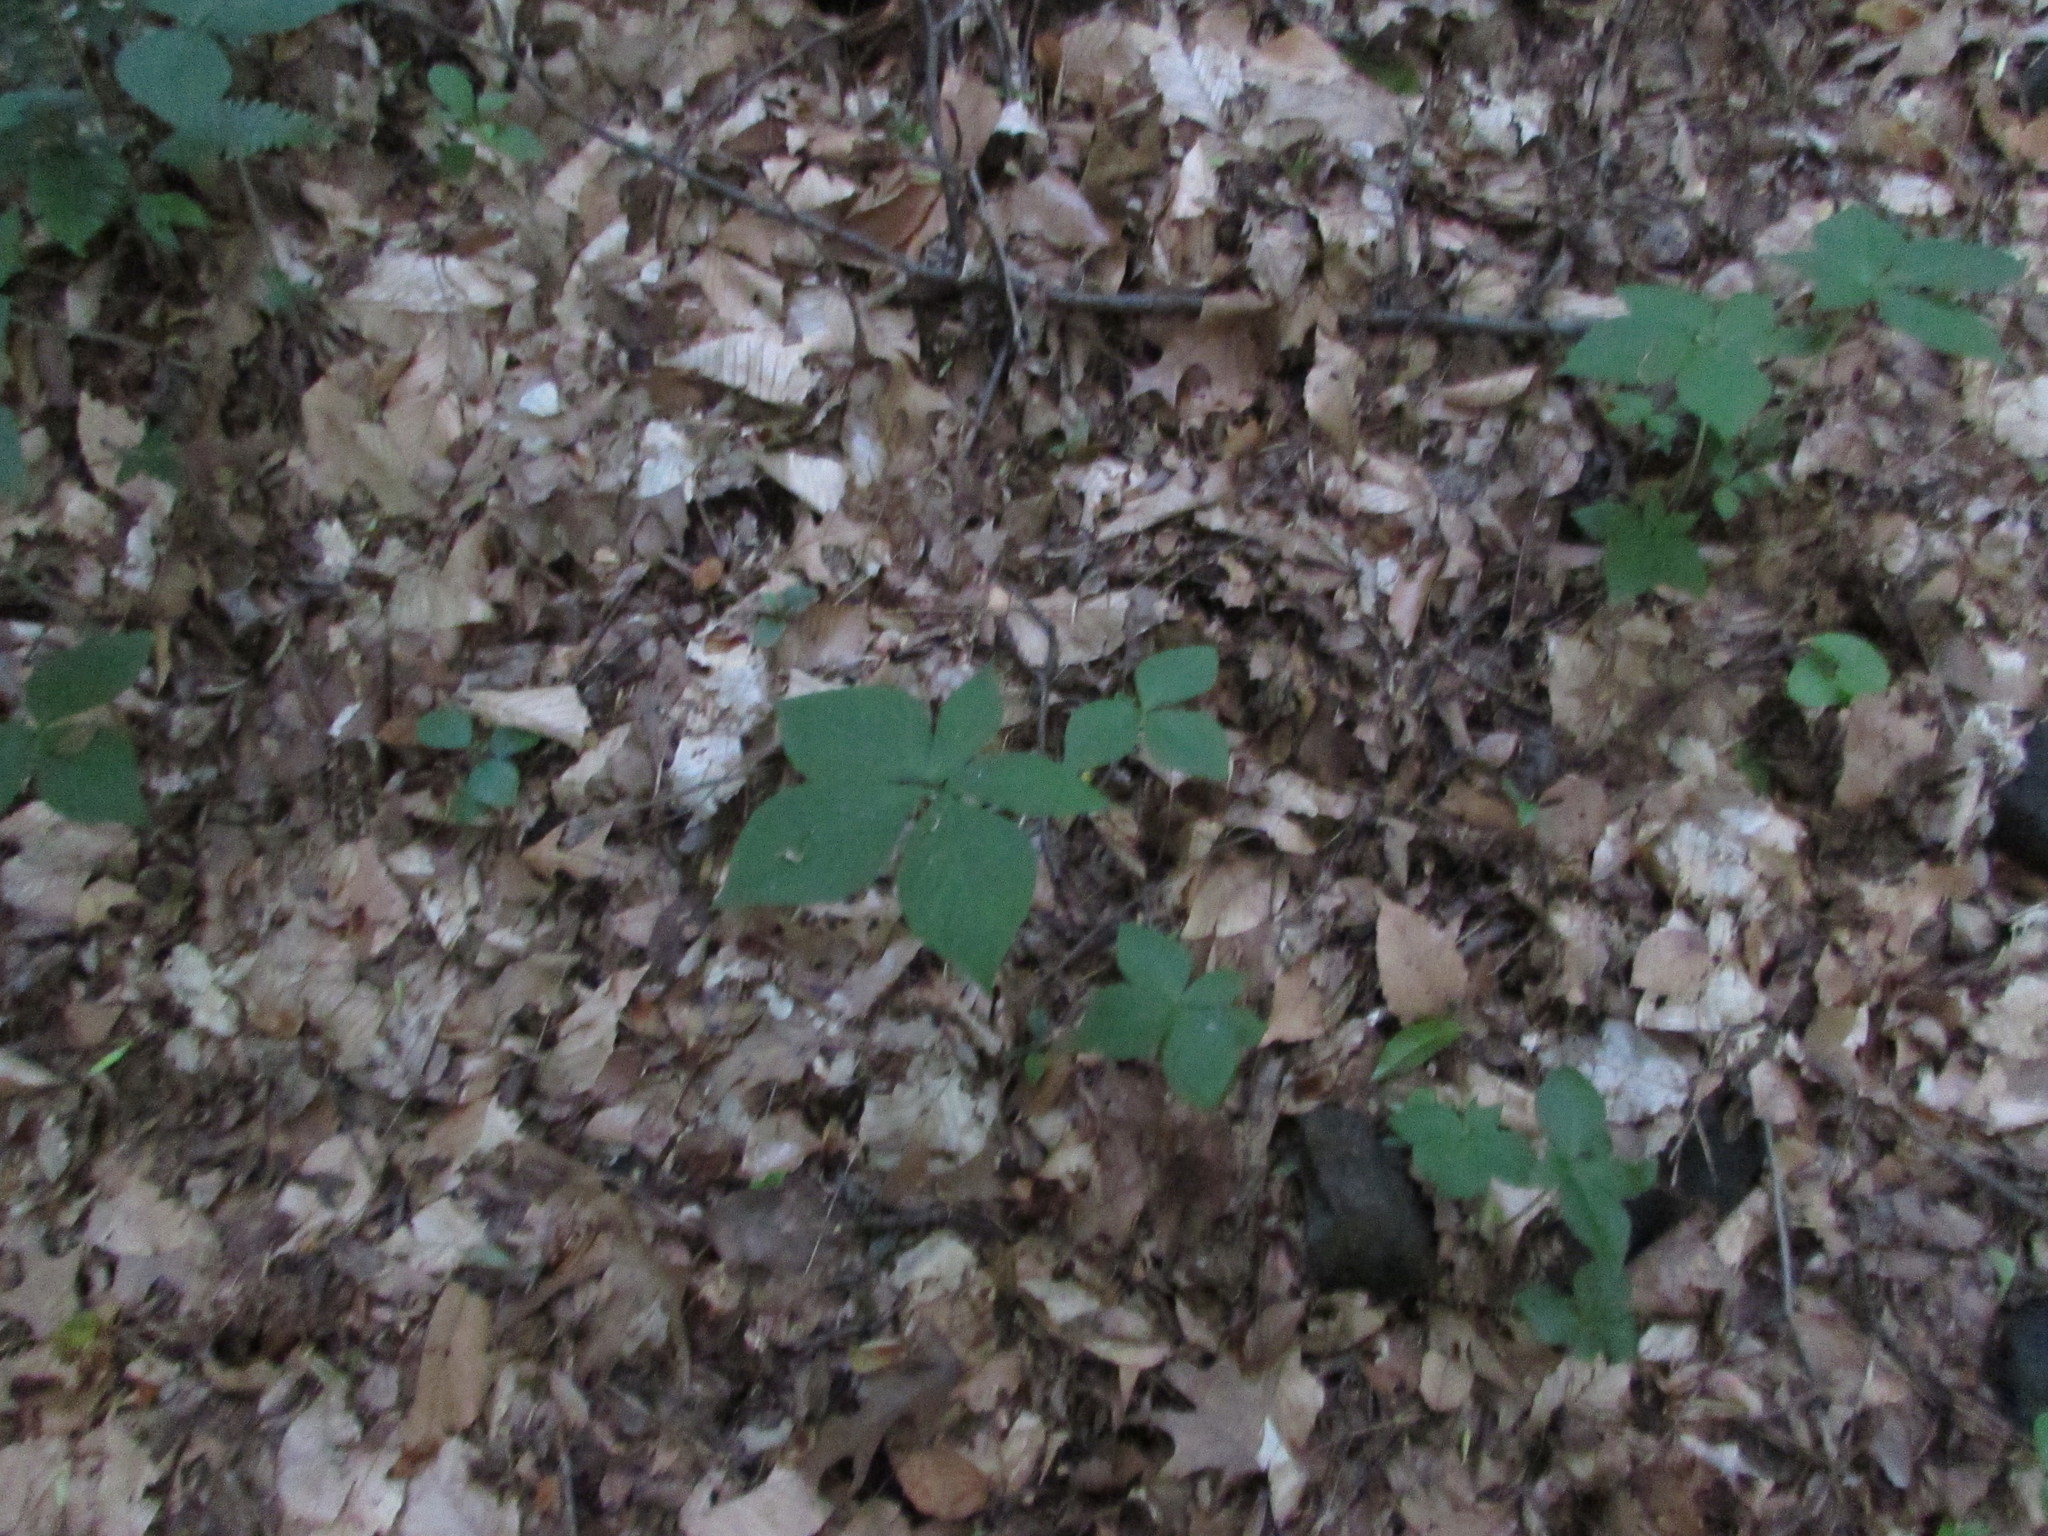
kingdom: Plantae
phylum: Tracheophyta
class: Liliopsida
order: Alismatales
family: Araceae
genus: Arisaema
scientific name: Arisaema triphyllum
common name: Jack-in-the-pulpit
